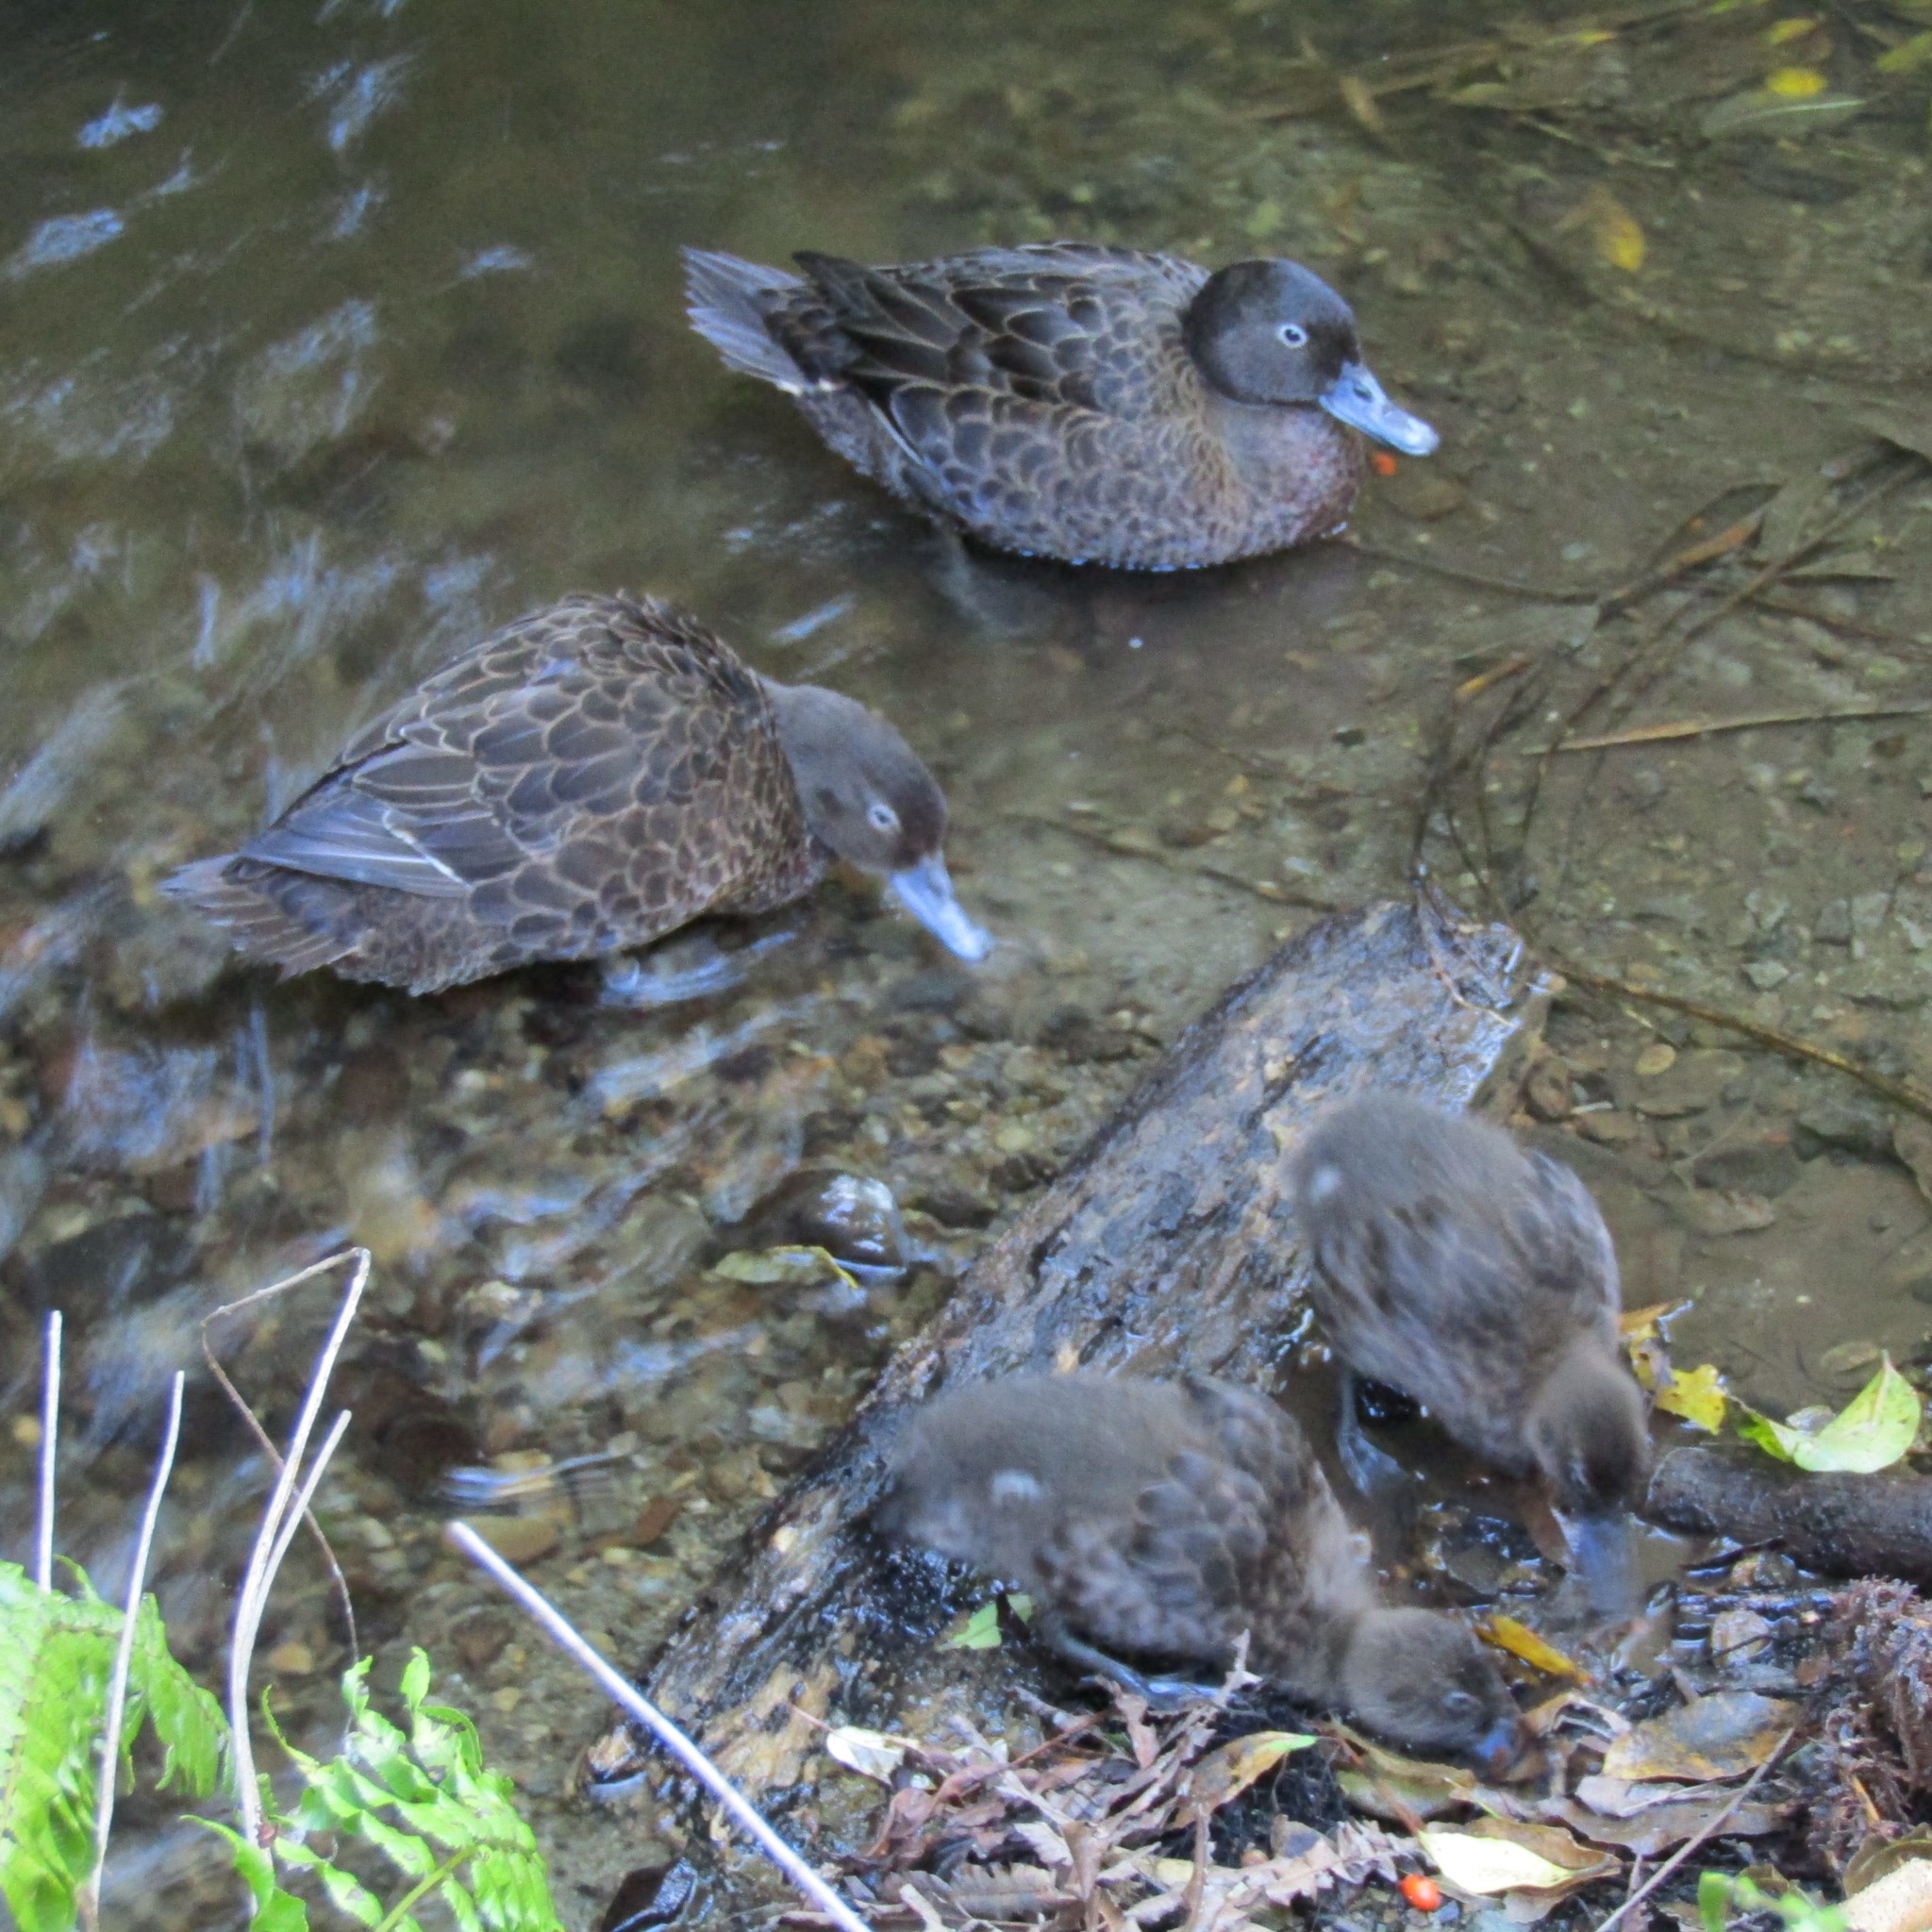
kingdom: Animalia
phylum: Chordata
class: Aves
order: Anseriformes
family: Anatidae
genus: Anas
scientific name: Anas chlorotis
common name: Brown teal
